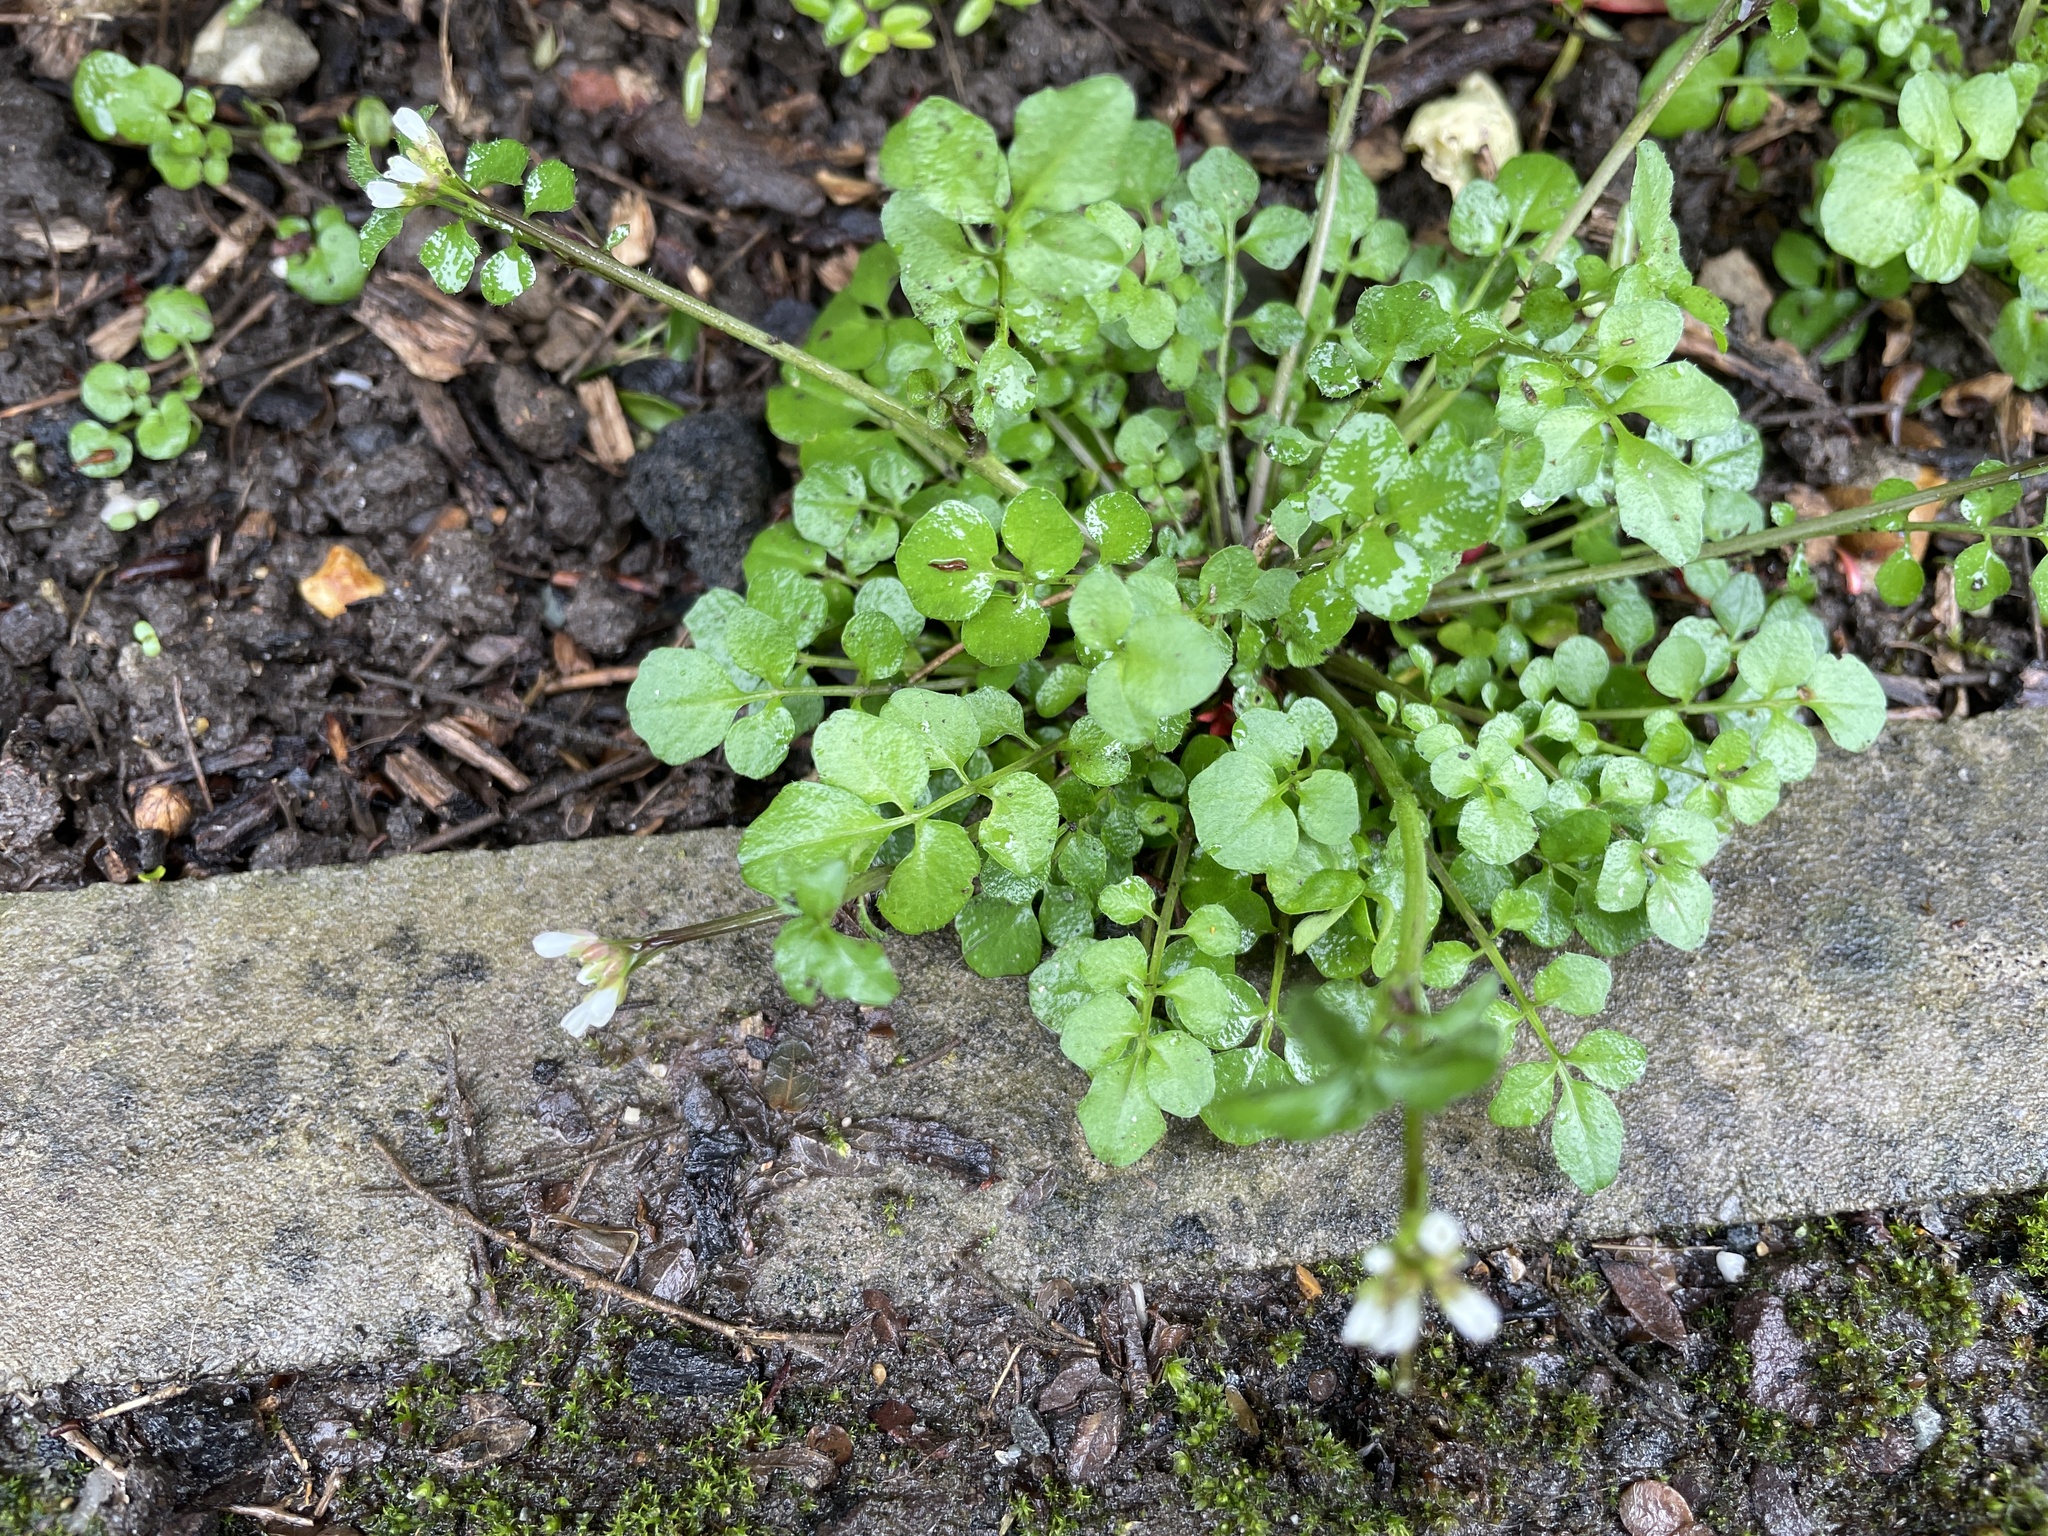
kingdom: Plantae
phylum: Tracheophyta
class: Magnoliopsida
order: Brassicales
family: Brassicaceae
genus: Cardamine
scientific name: Cardamine hirsuta
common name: Hairy bittercress
